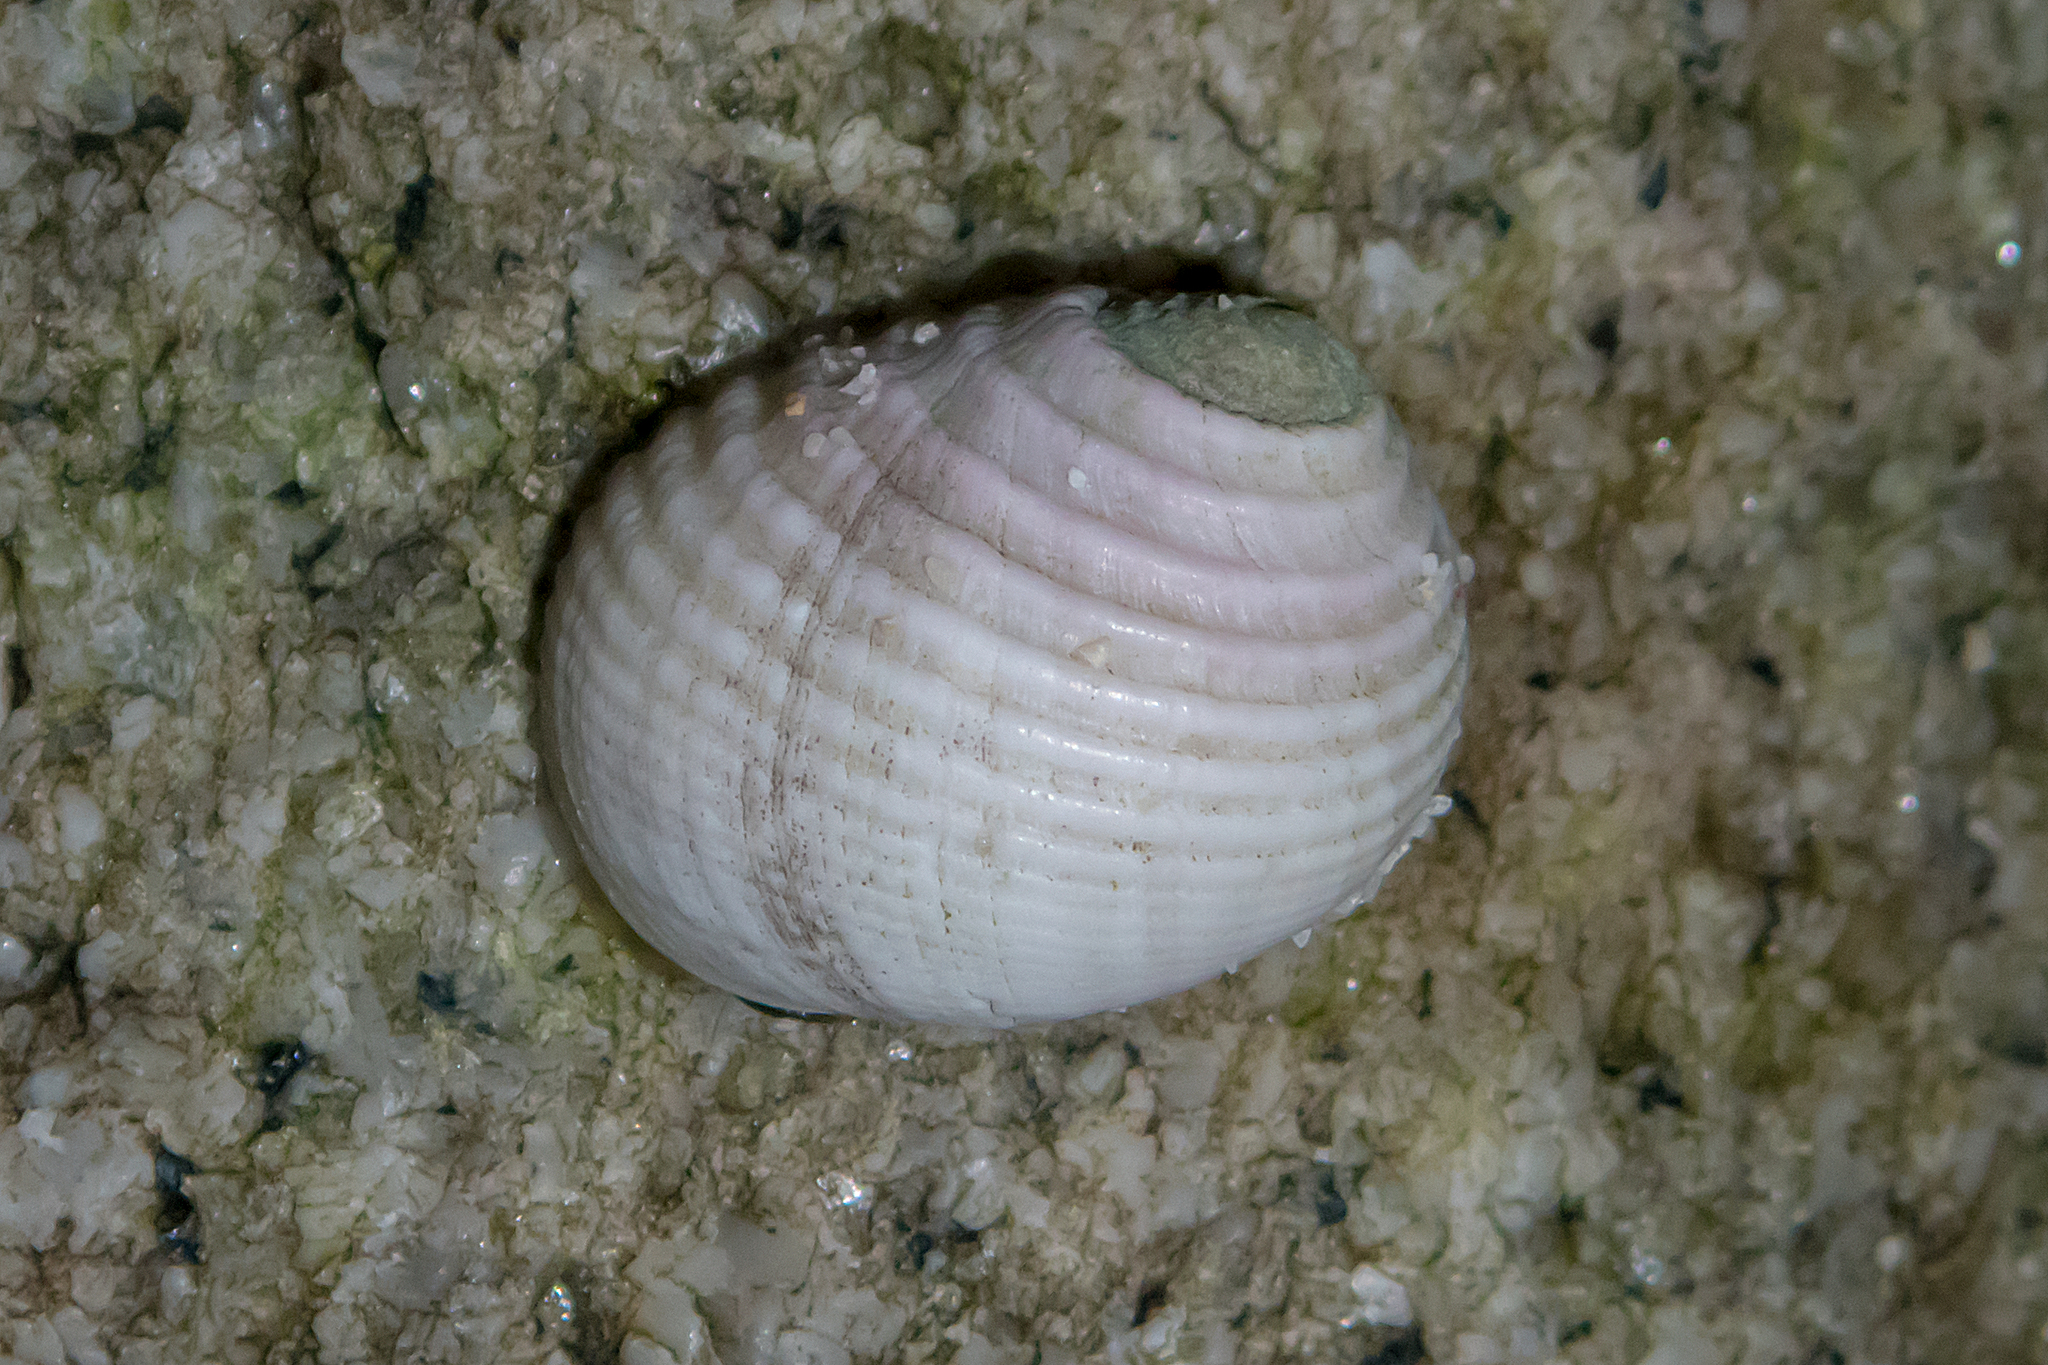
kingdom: Animalia
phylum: Mollusca
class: Gastropoda
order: Cycloneritida
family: Neritidae
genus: Nerita
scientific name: Nerita plicata
